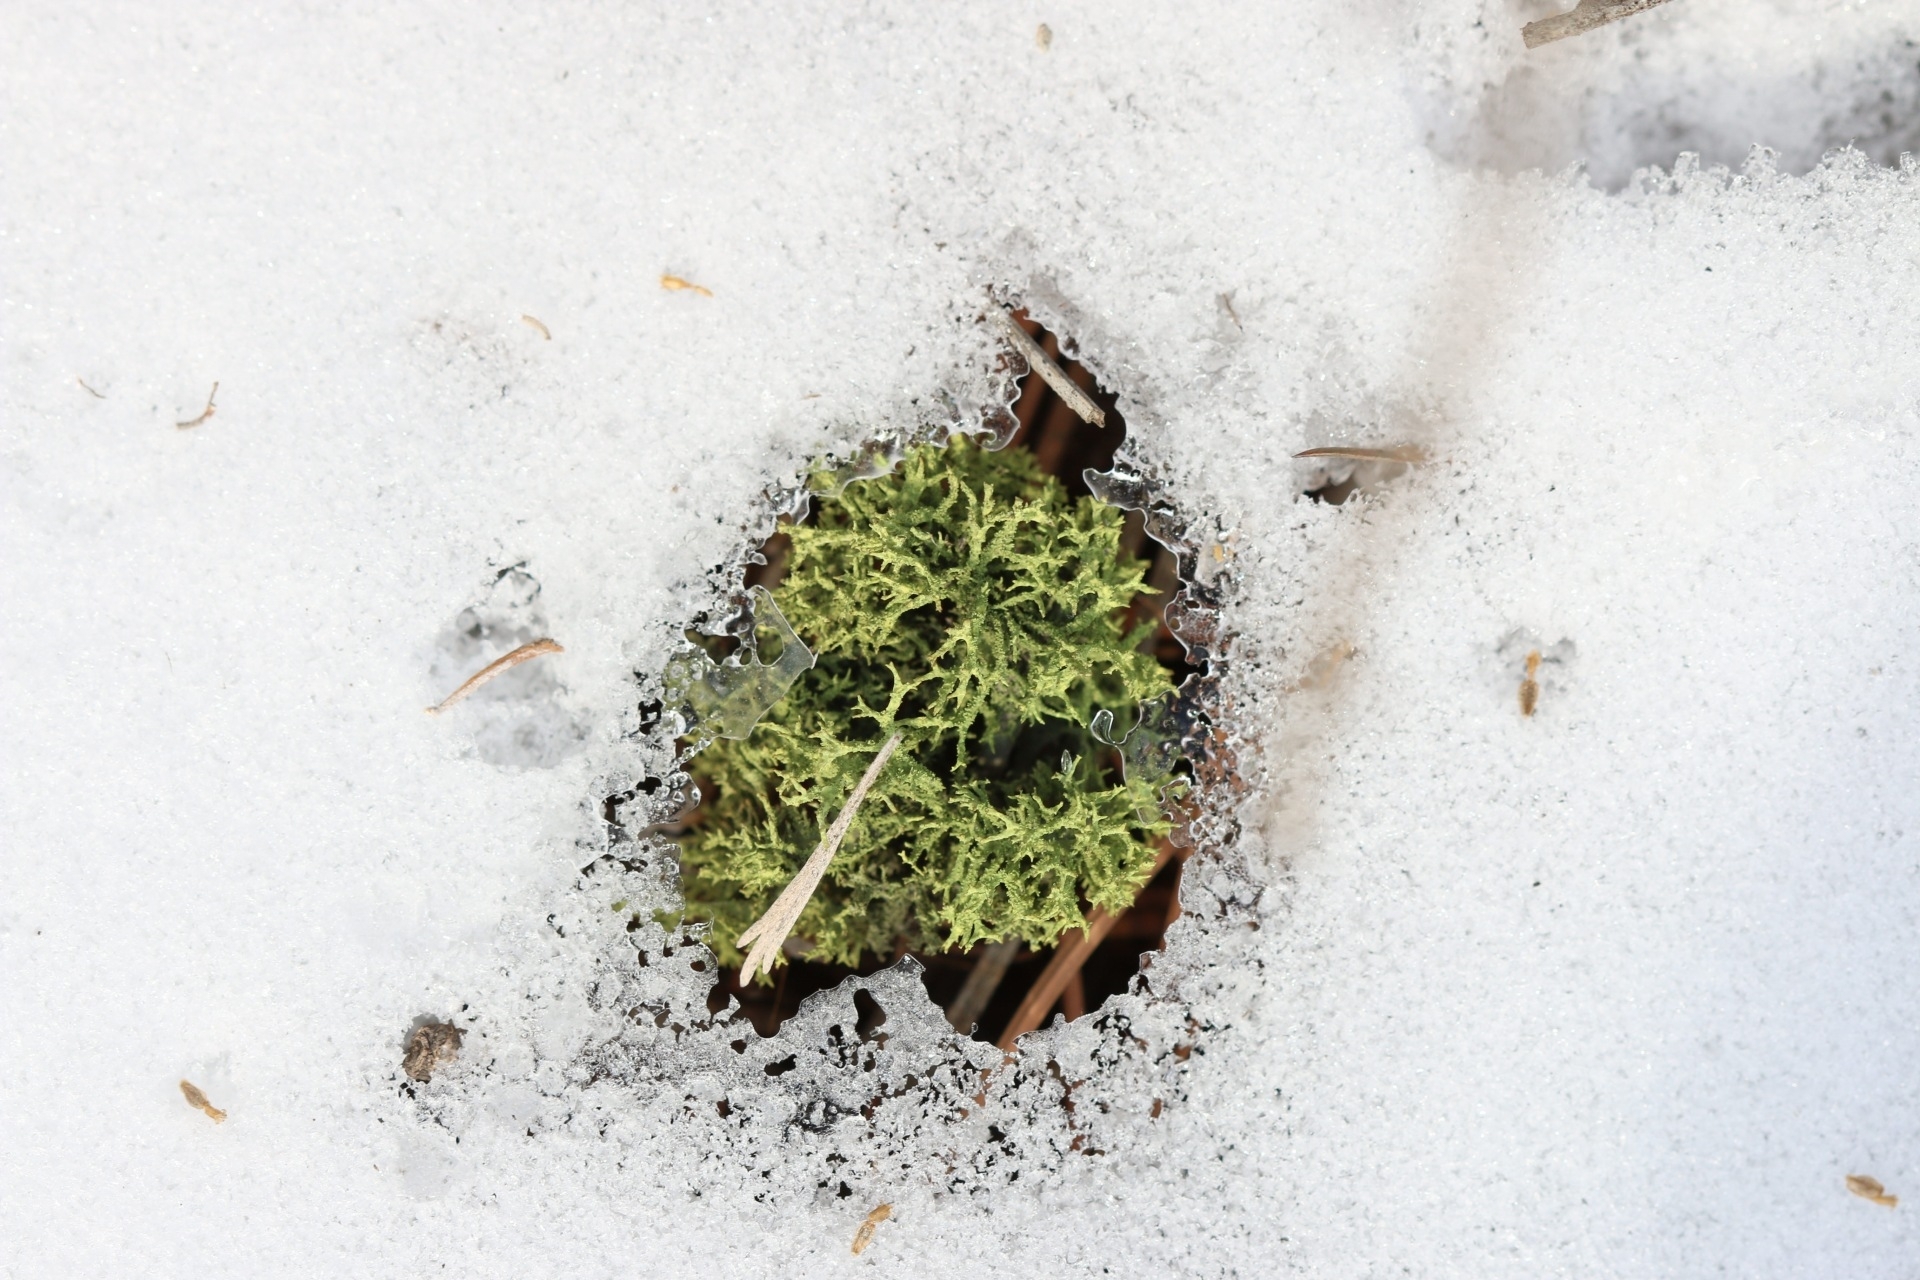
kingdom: Fungi
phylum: Ascomycota
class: Lecanoromycetes
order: Lecanorales
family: Parmeliaceae
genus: Letharia
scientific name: Letharia vulpina
